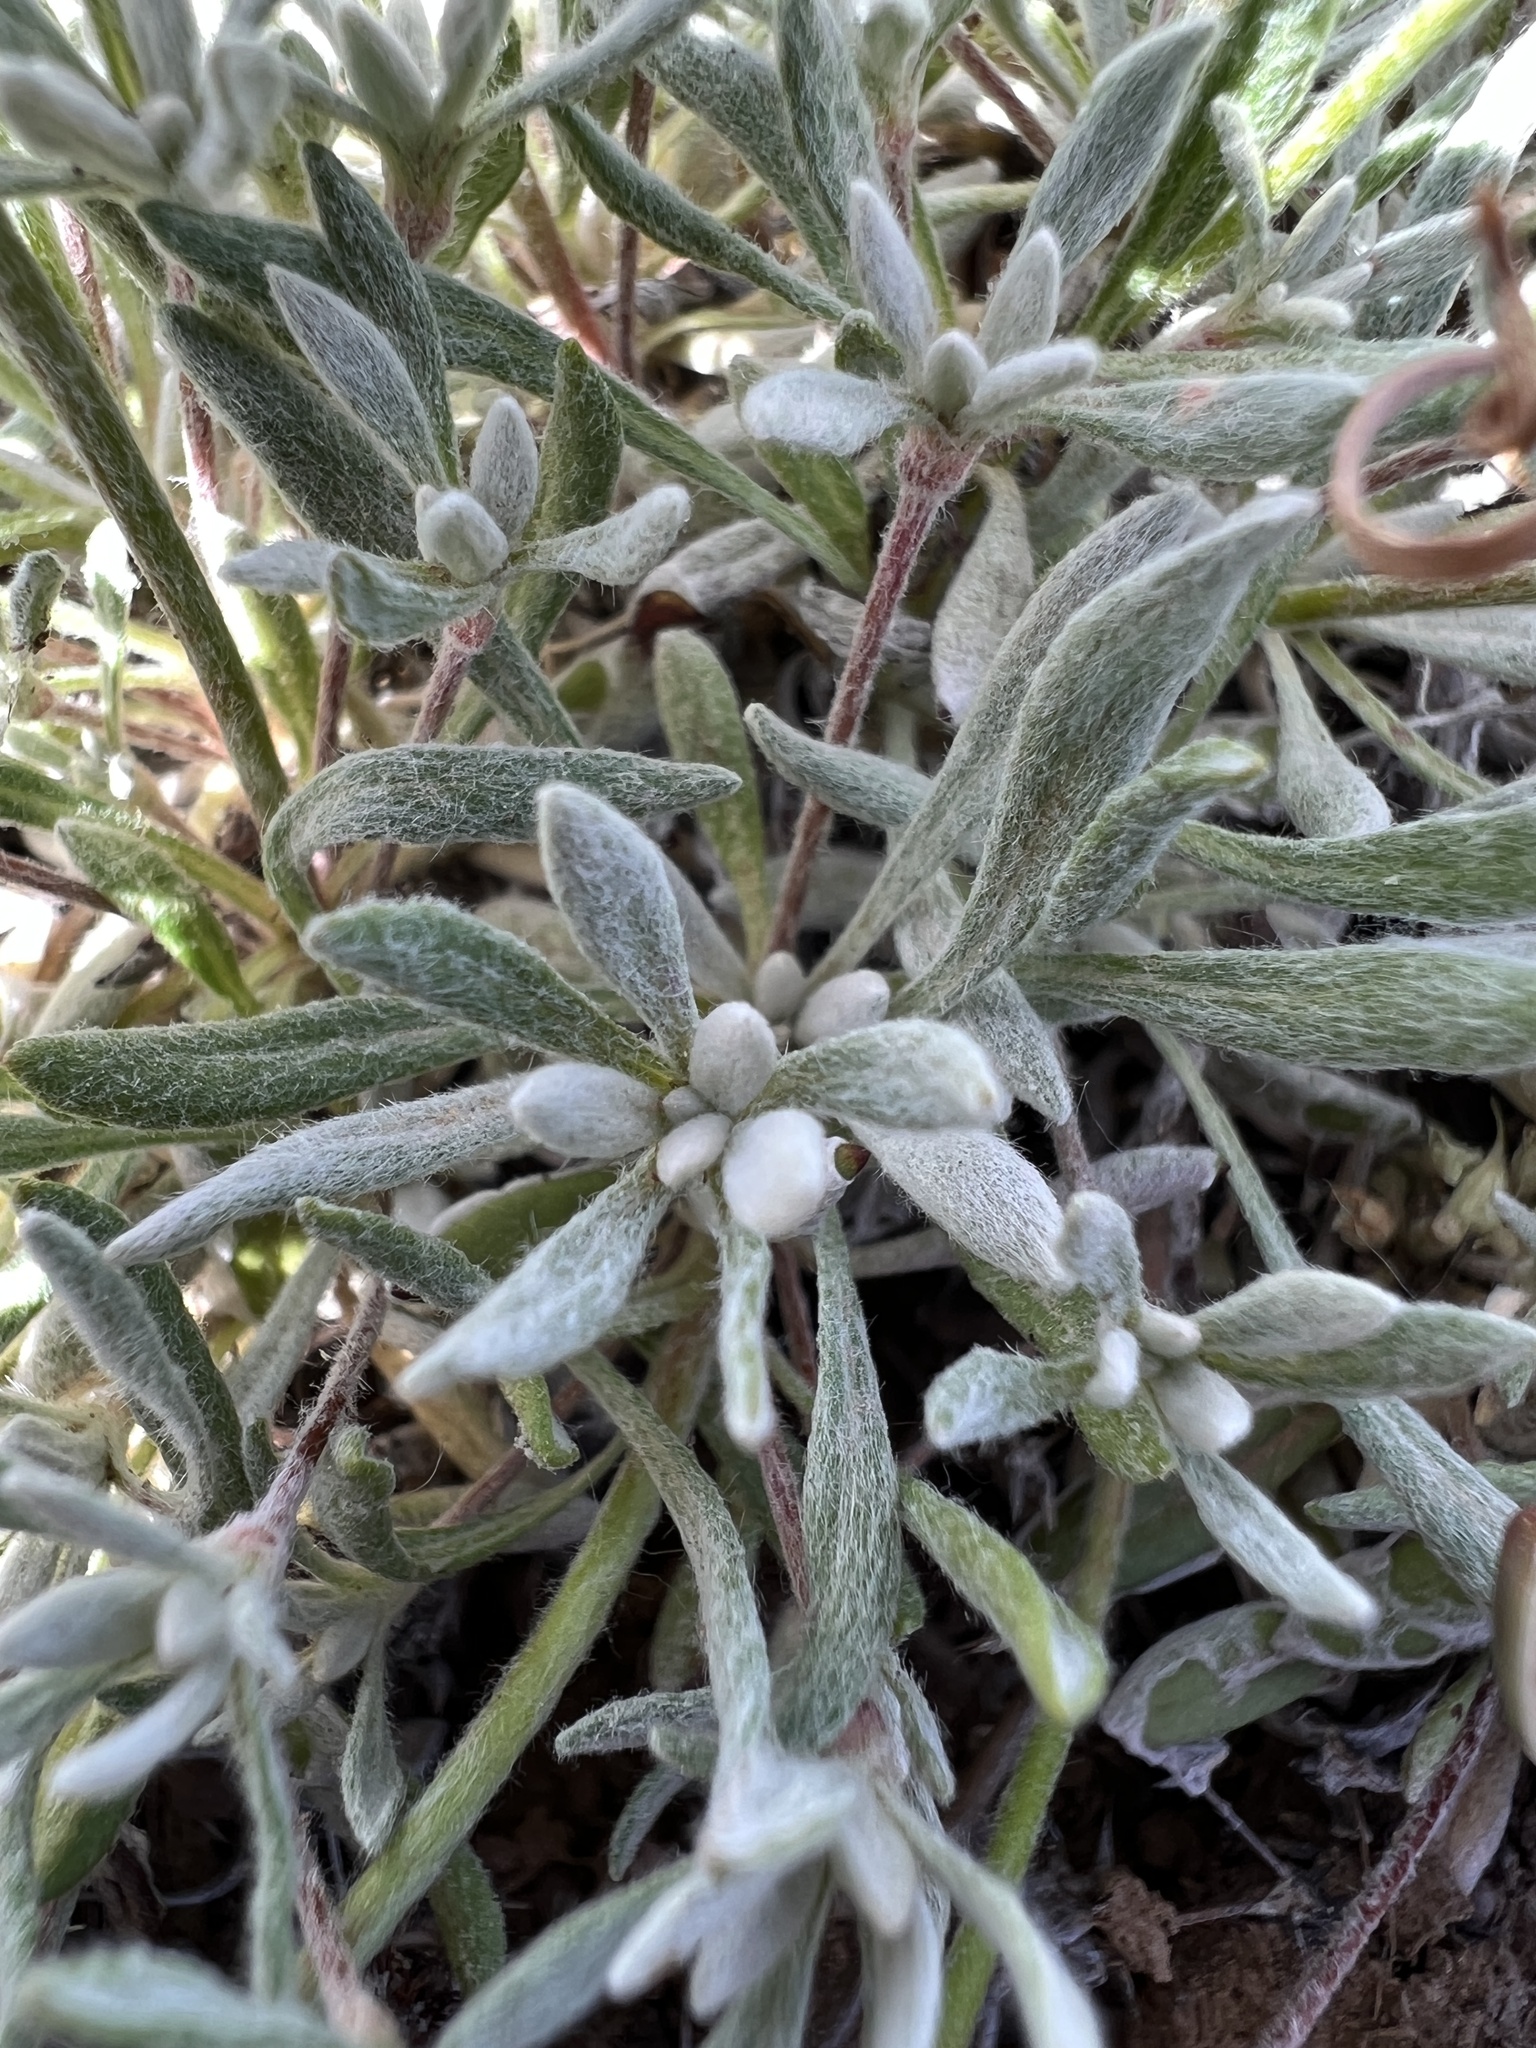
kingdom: Plantae
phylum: Tracheophyta
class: Magnoliopsida
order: Caryophyllales
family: Polygonaceae
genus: Eriogonum
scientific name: Eriogonum douglasii
